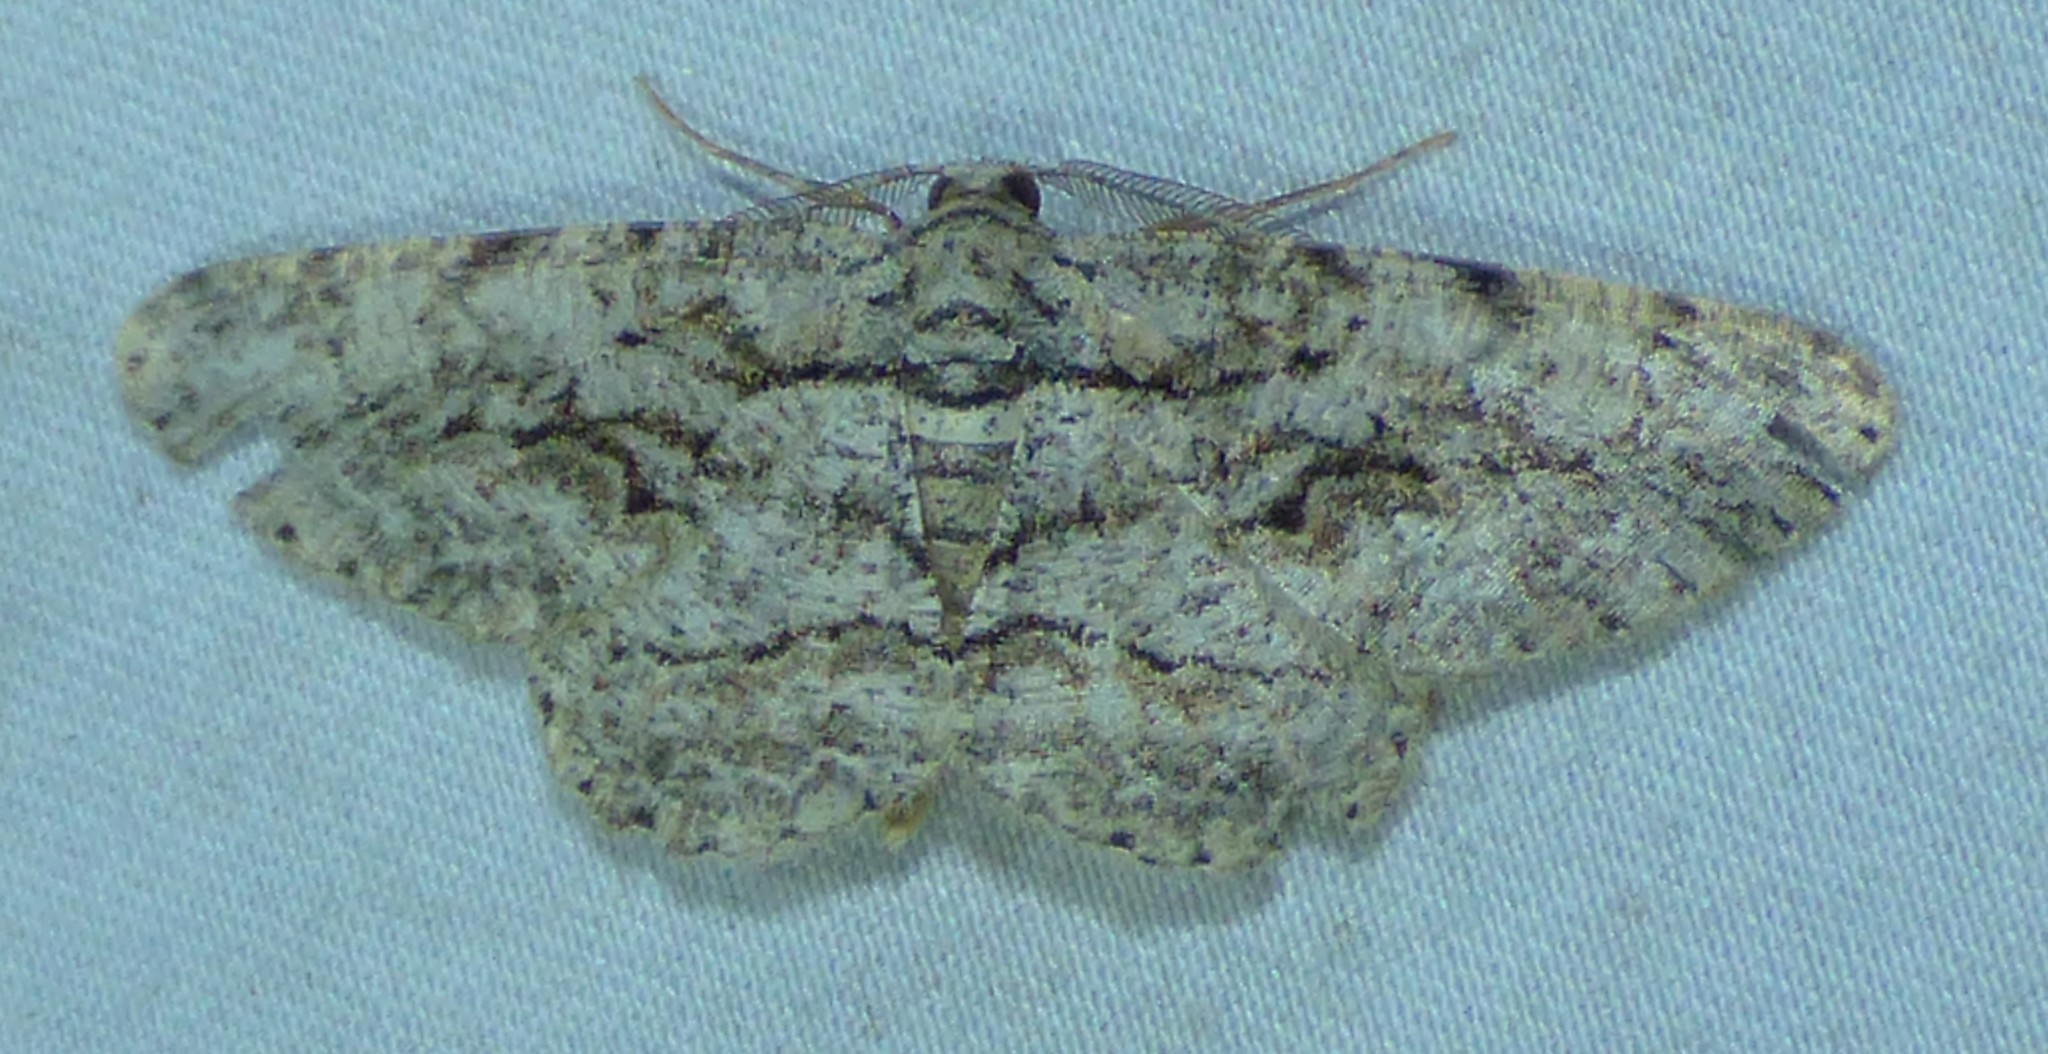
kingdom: Animalia
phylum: Arthropoda
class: Insecta
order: Lepidoptera
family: Geometridae
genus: Anavitrinella
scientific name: Anavitrinella pampinaria
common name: Common gray
